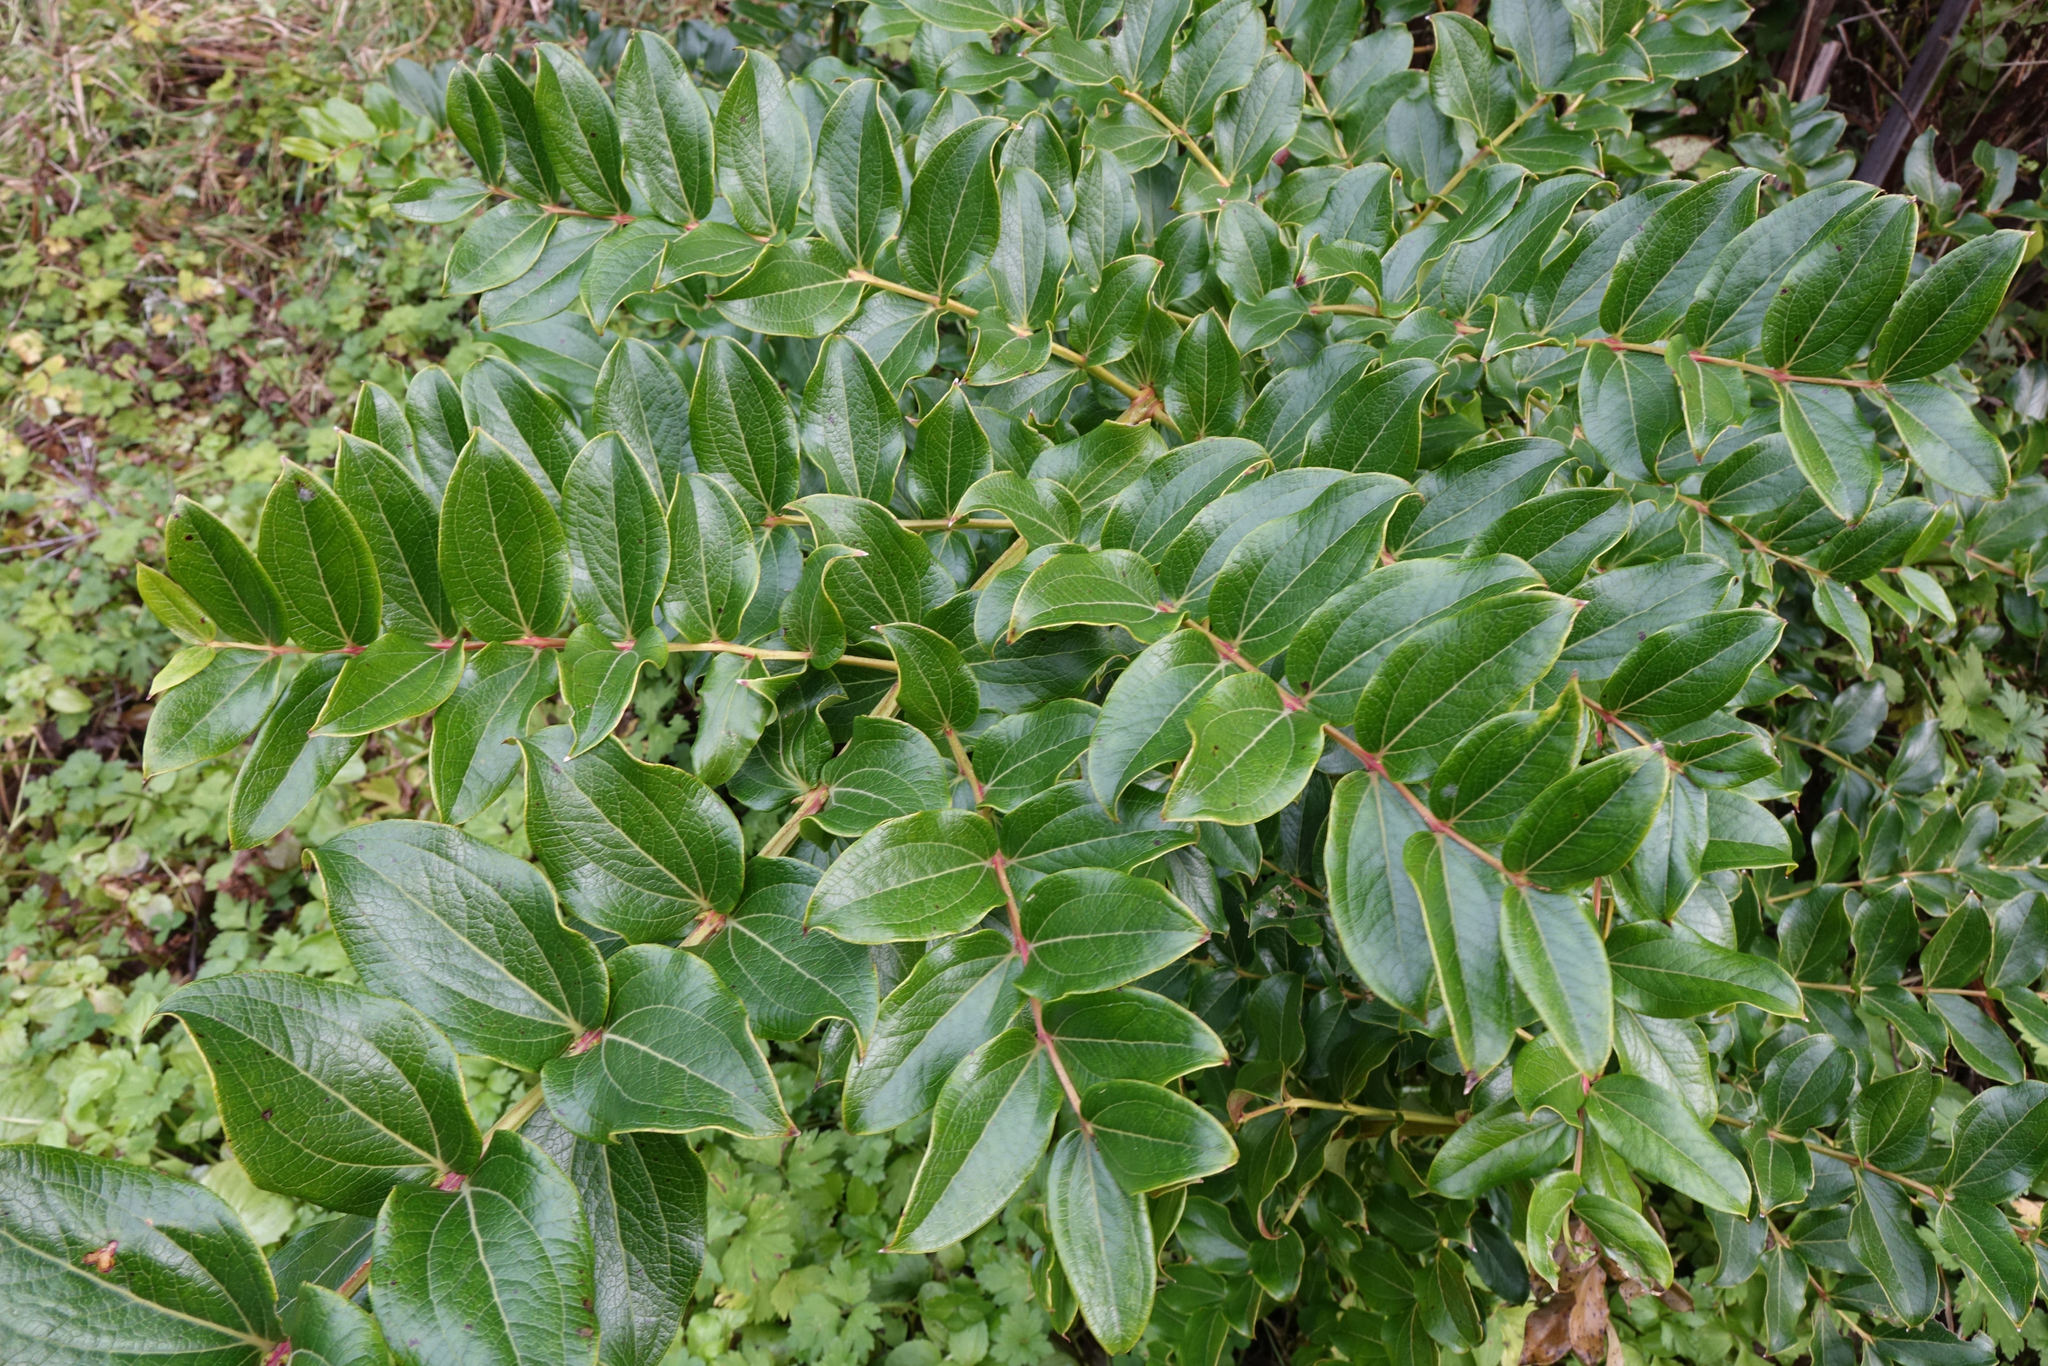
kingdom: Plantae
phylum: Tracheophyta
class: Magnoliopsida
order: Cucurbitales
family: Coriariaceae
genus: Coriaria
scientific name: Coriaria arborea
